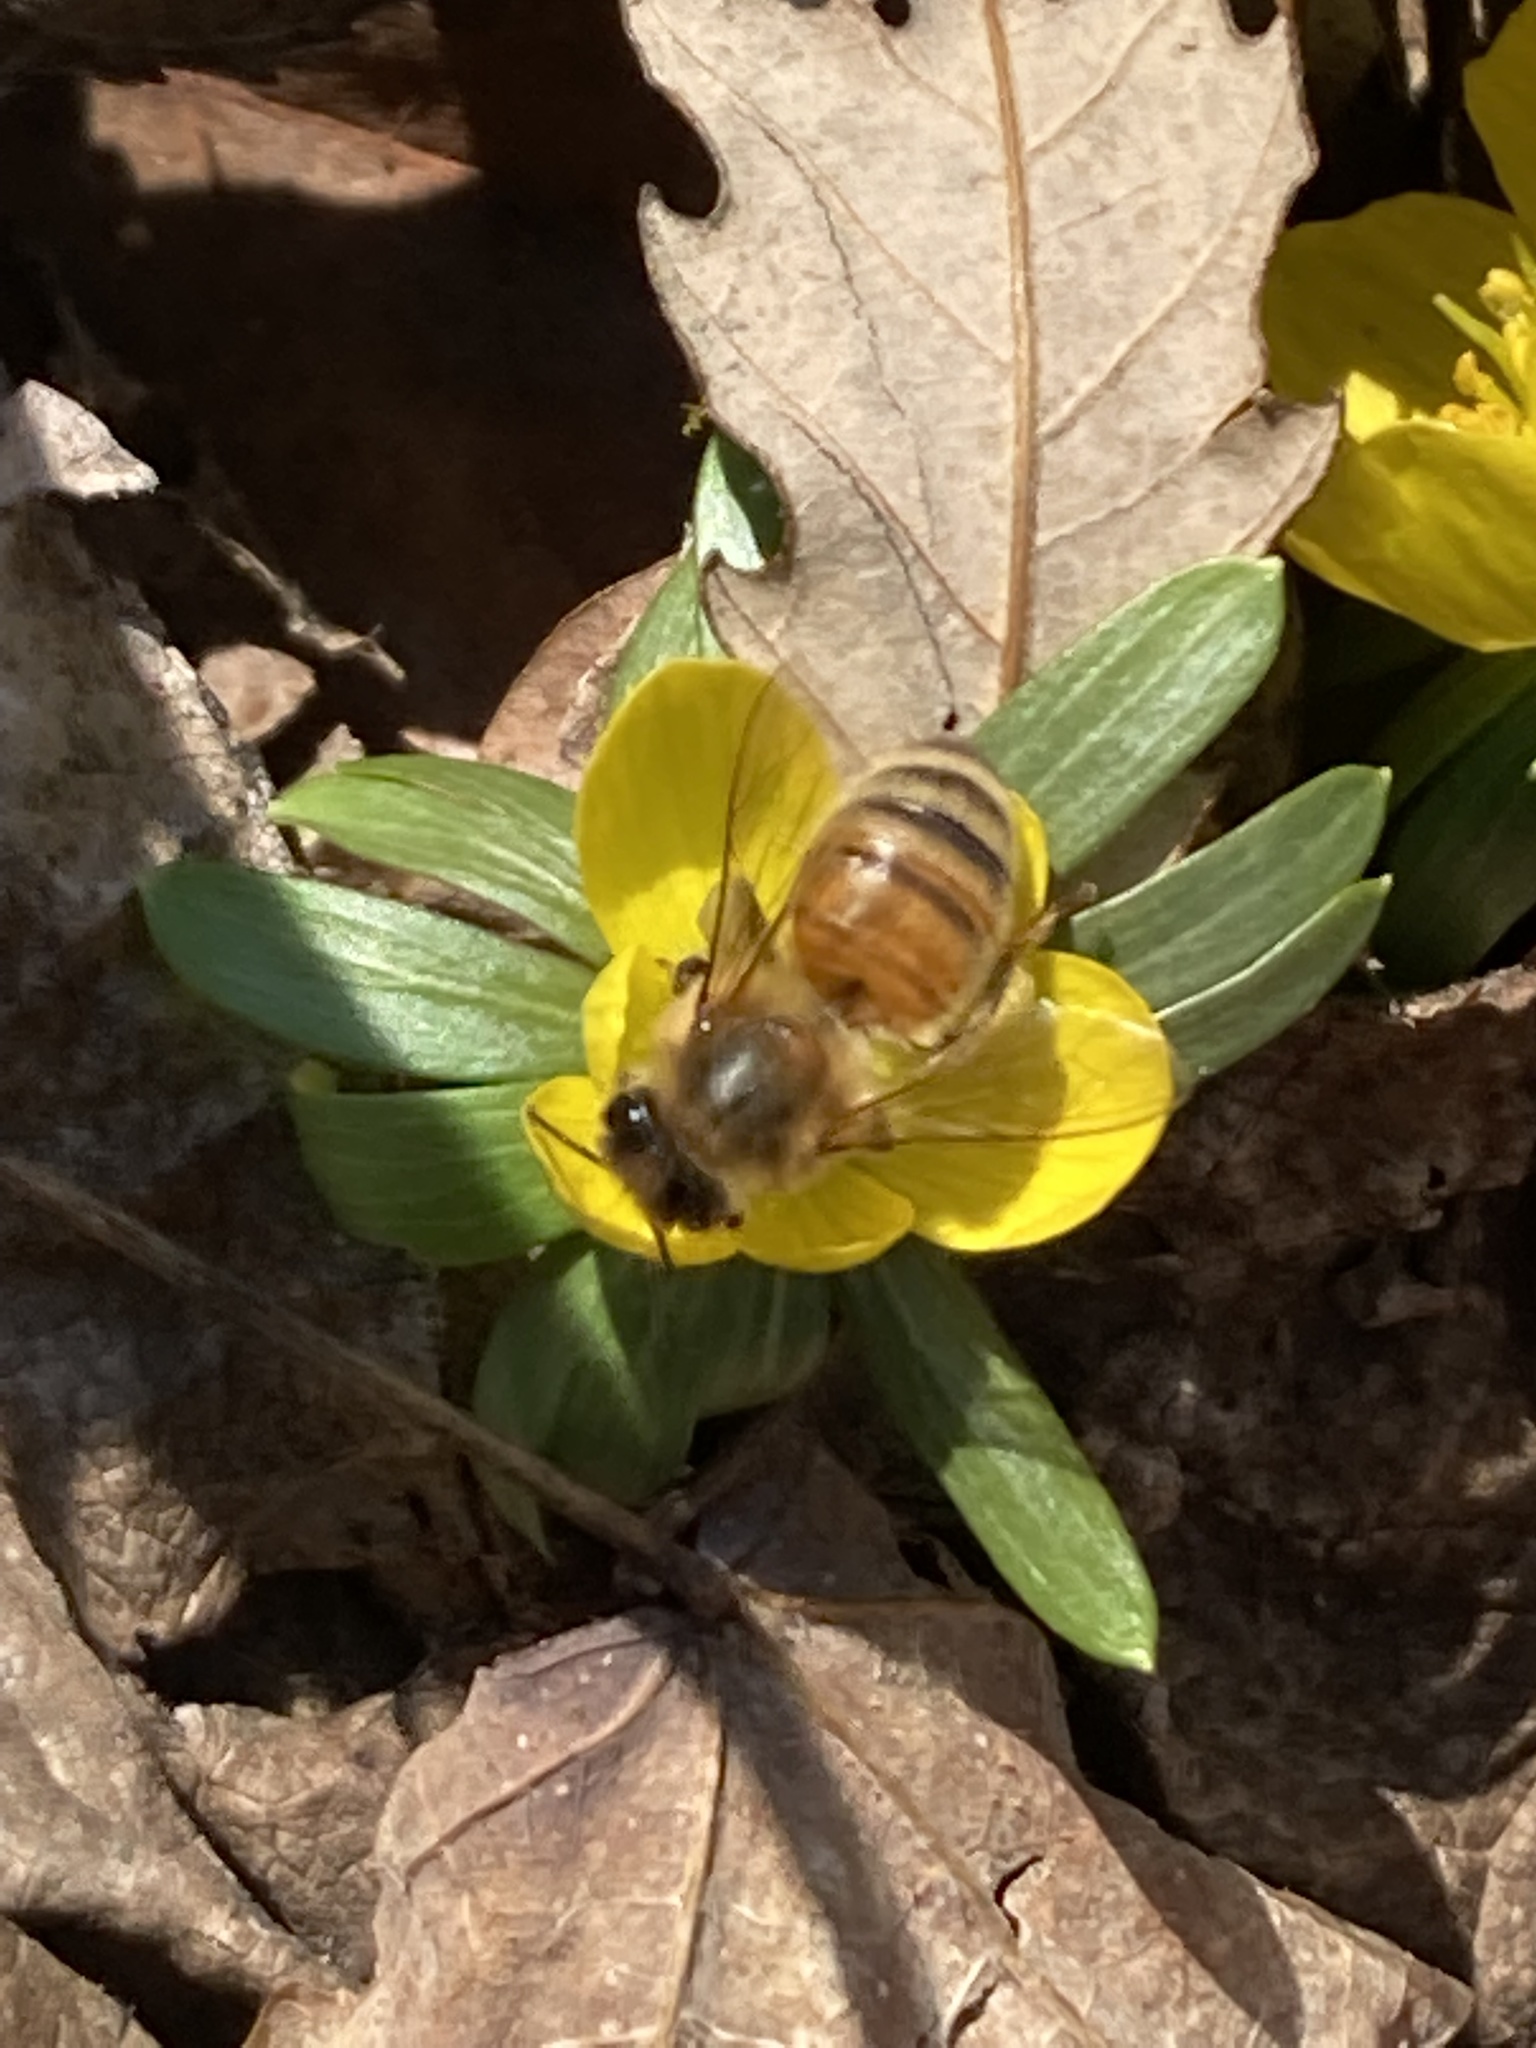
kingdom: Animalia
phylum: Arthropoda
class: Insecta
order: Hymenoptera
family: Apidae
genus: Apis
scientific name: Apis mellifera
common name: Honey bee
